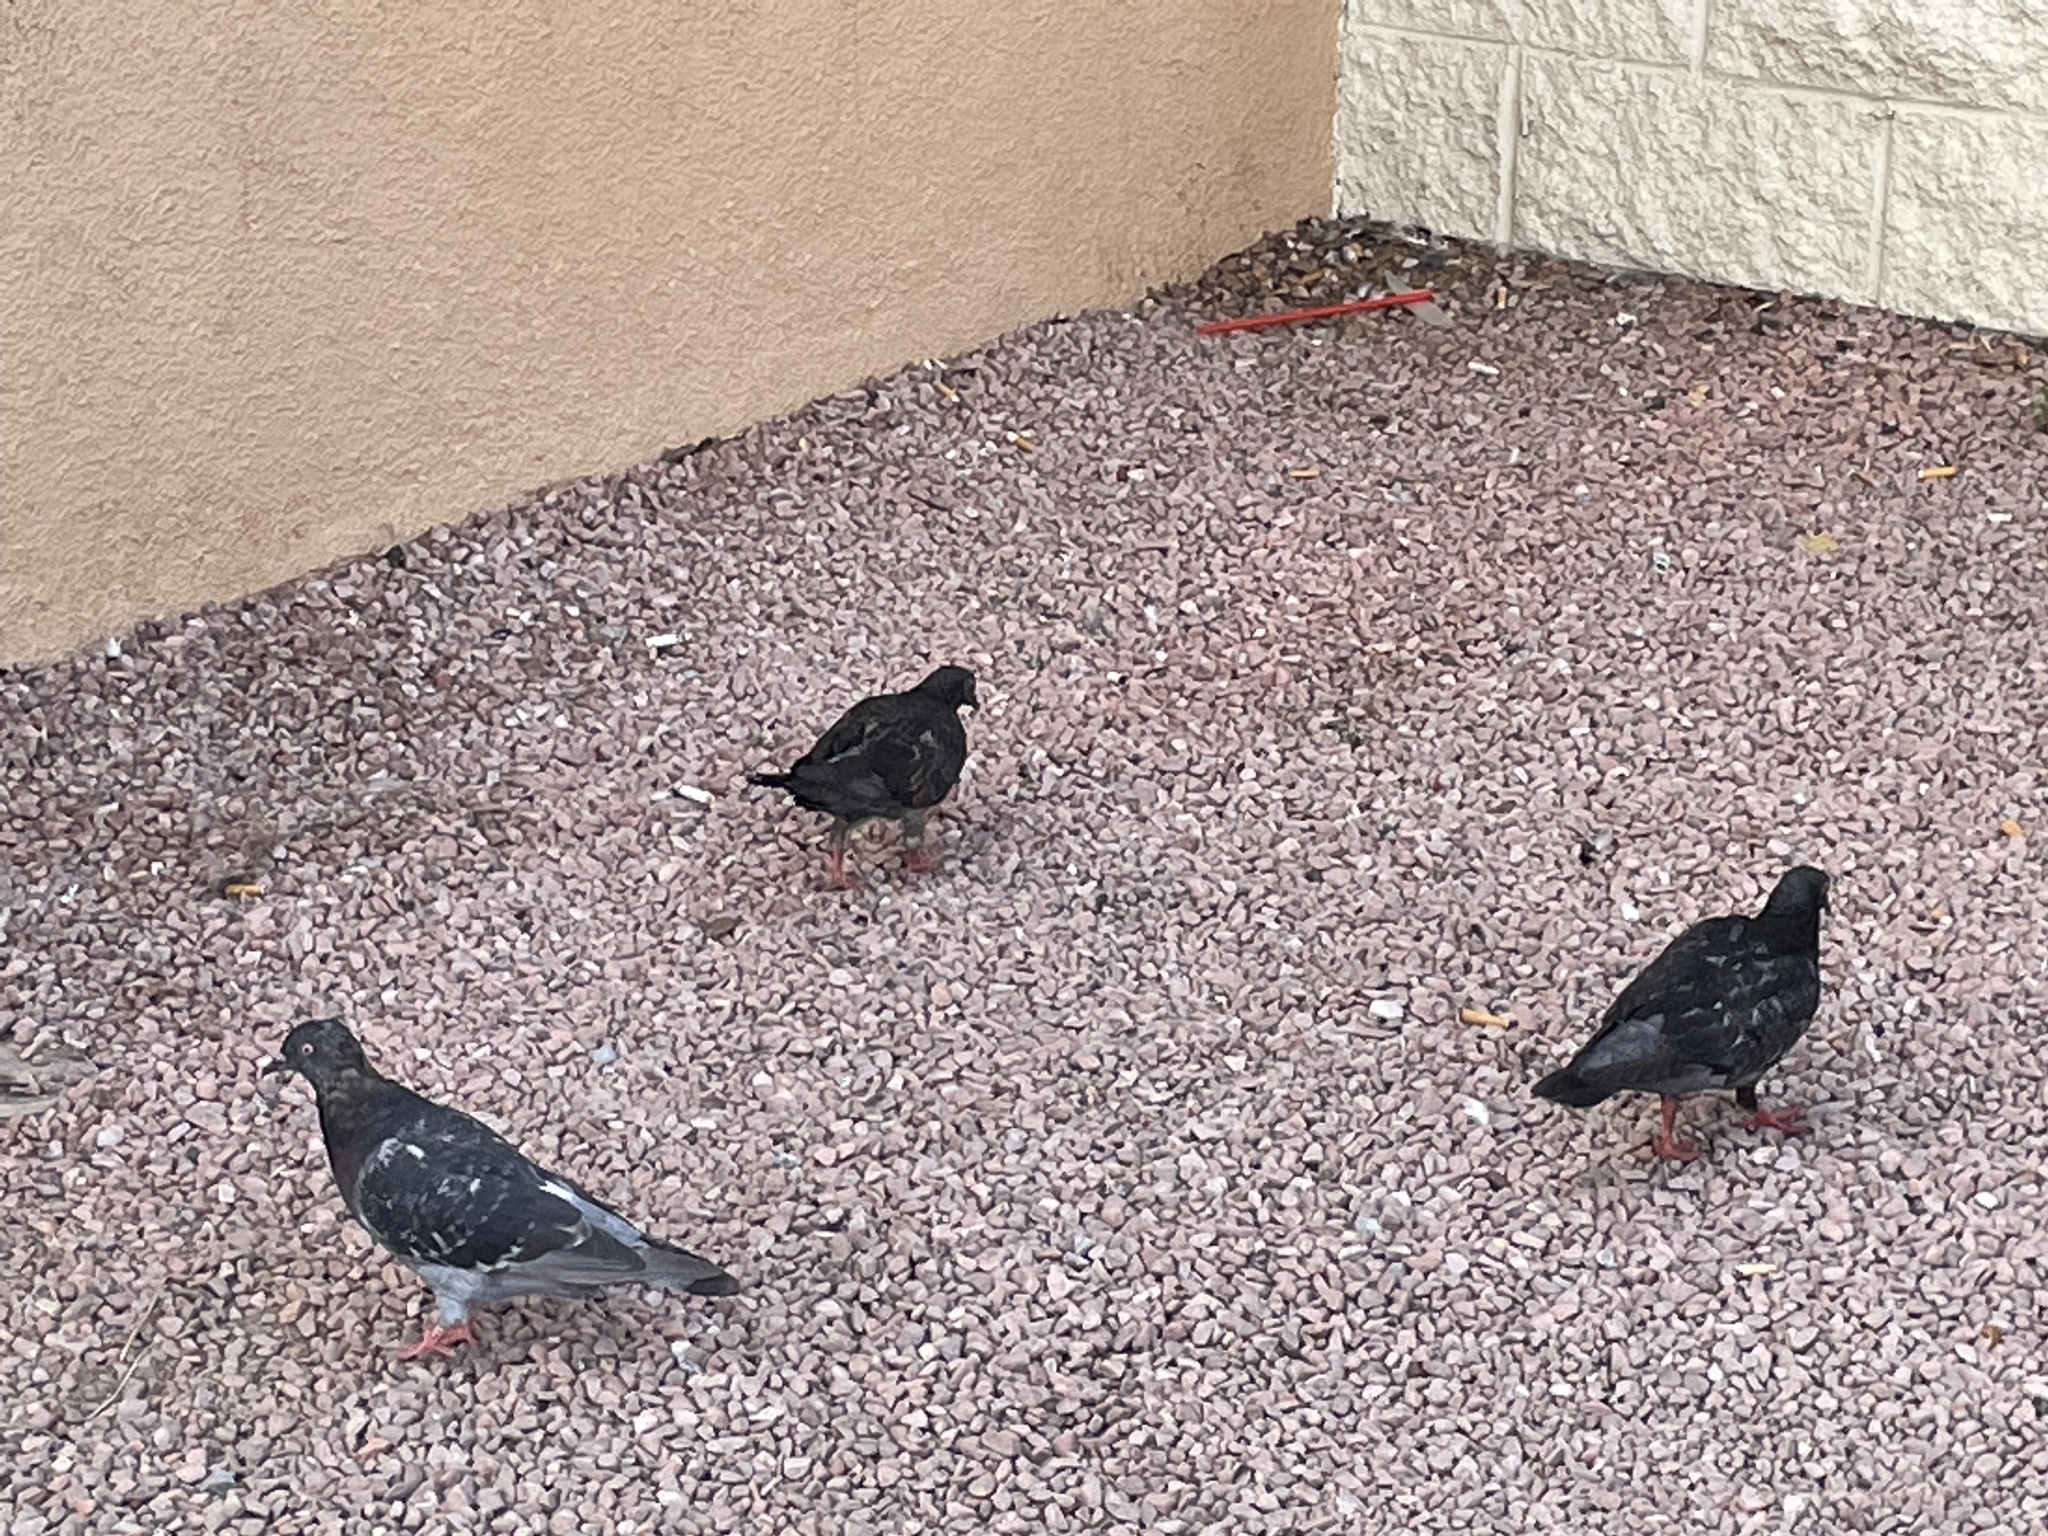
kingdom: Animalia
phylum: Chordata
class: Aves
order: Columbiformes
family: Columbidae
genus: Columba
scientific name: Columba livia
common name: Rock pigeon
